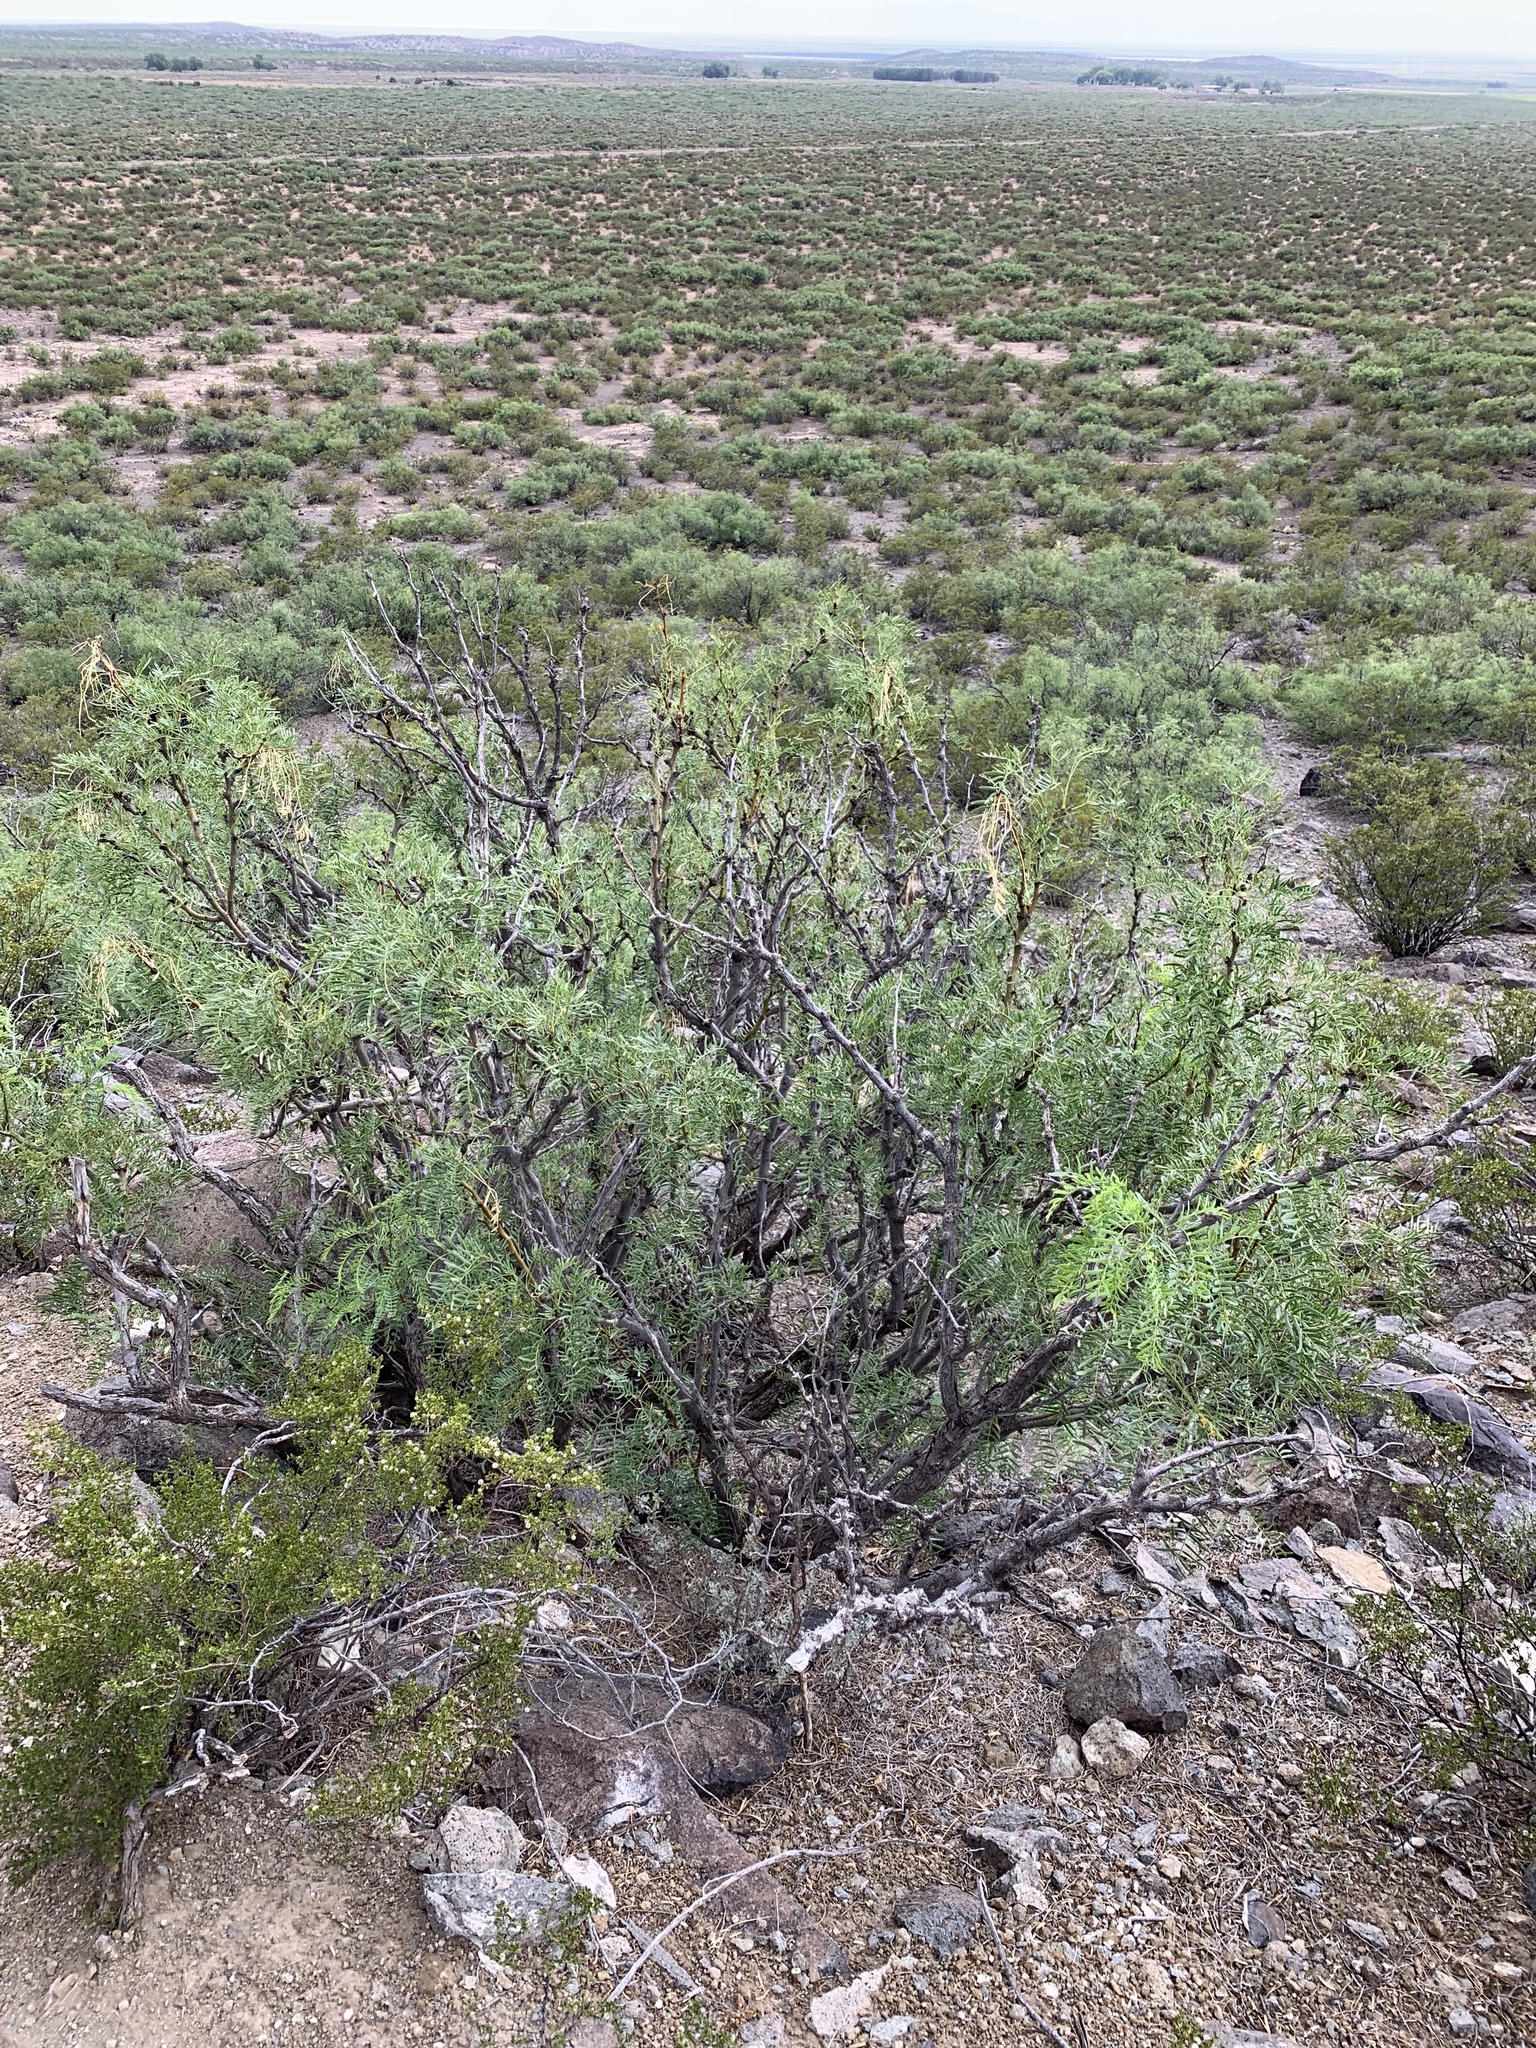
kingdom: Plantae
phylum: Tracheophyta
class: Magnoliopsida
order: Fabales
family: Fabaceae
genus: Prosopis
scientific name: Prosopis glandulosa
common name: Honey mesquite
